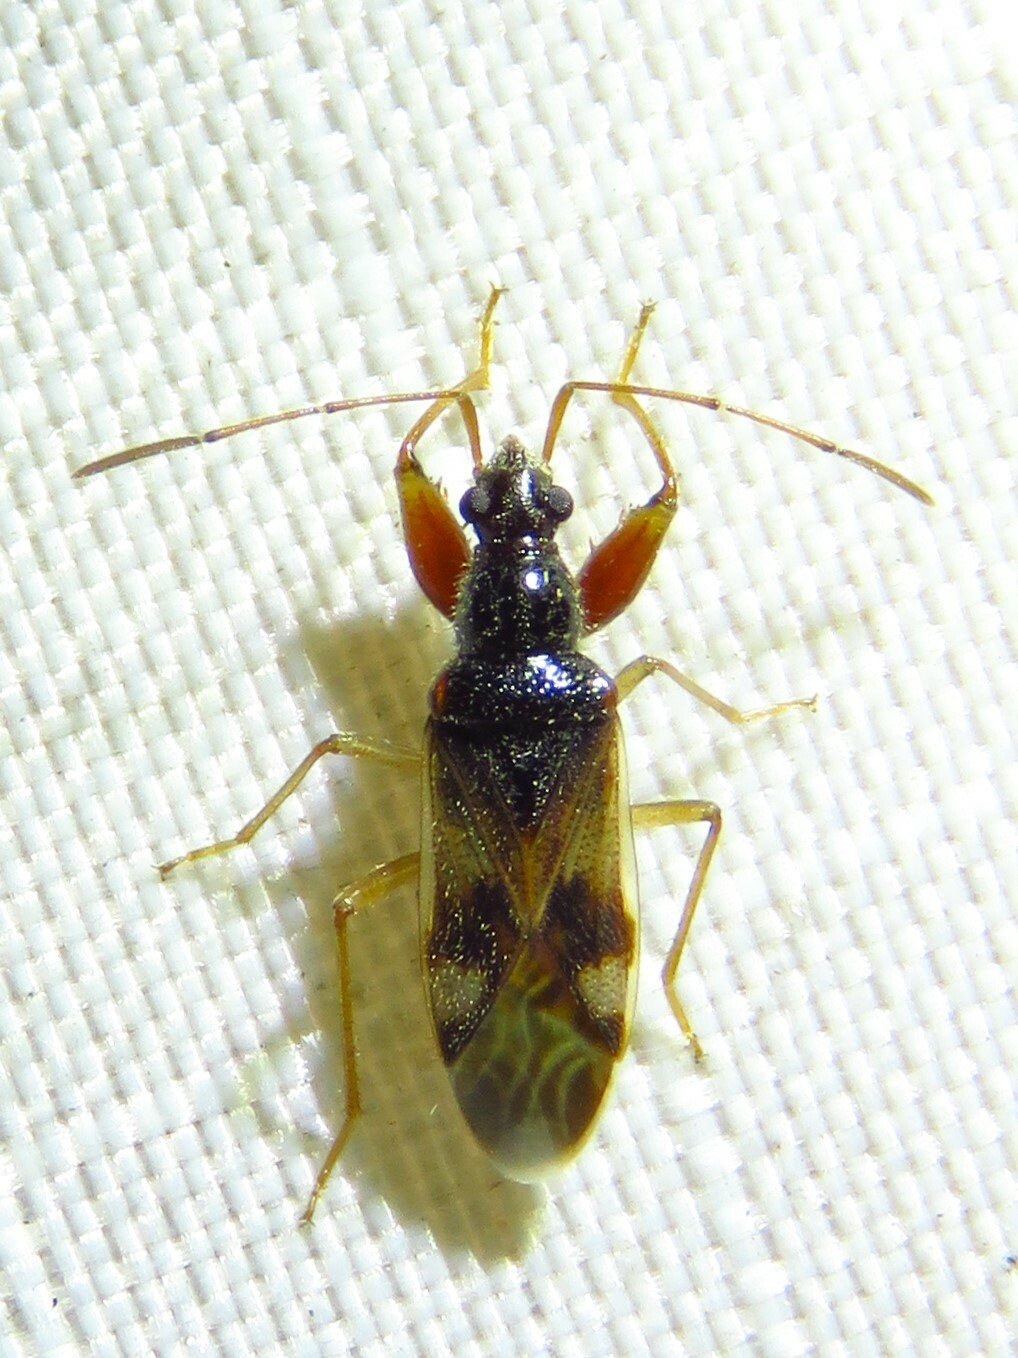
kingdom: Animalia
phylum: Arthropoda
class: Insecta
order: Hemiptera
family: Rhyparochromidae
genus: Pseudopamera
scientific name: Pseudopamera nitidula
